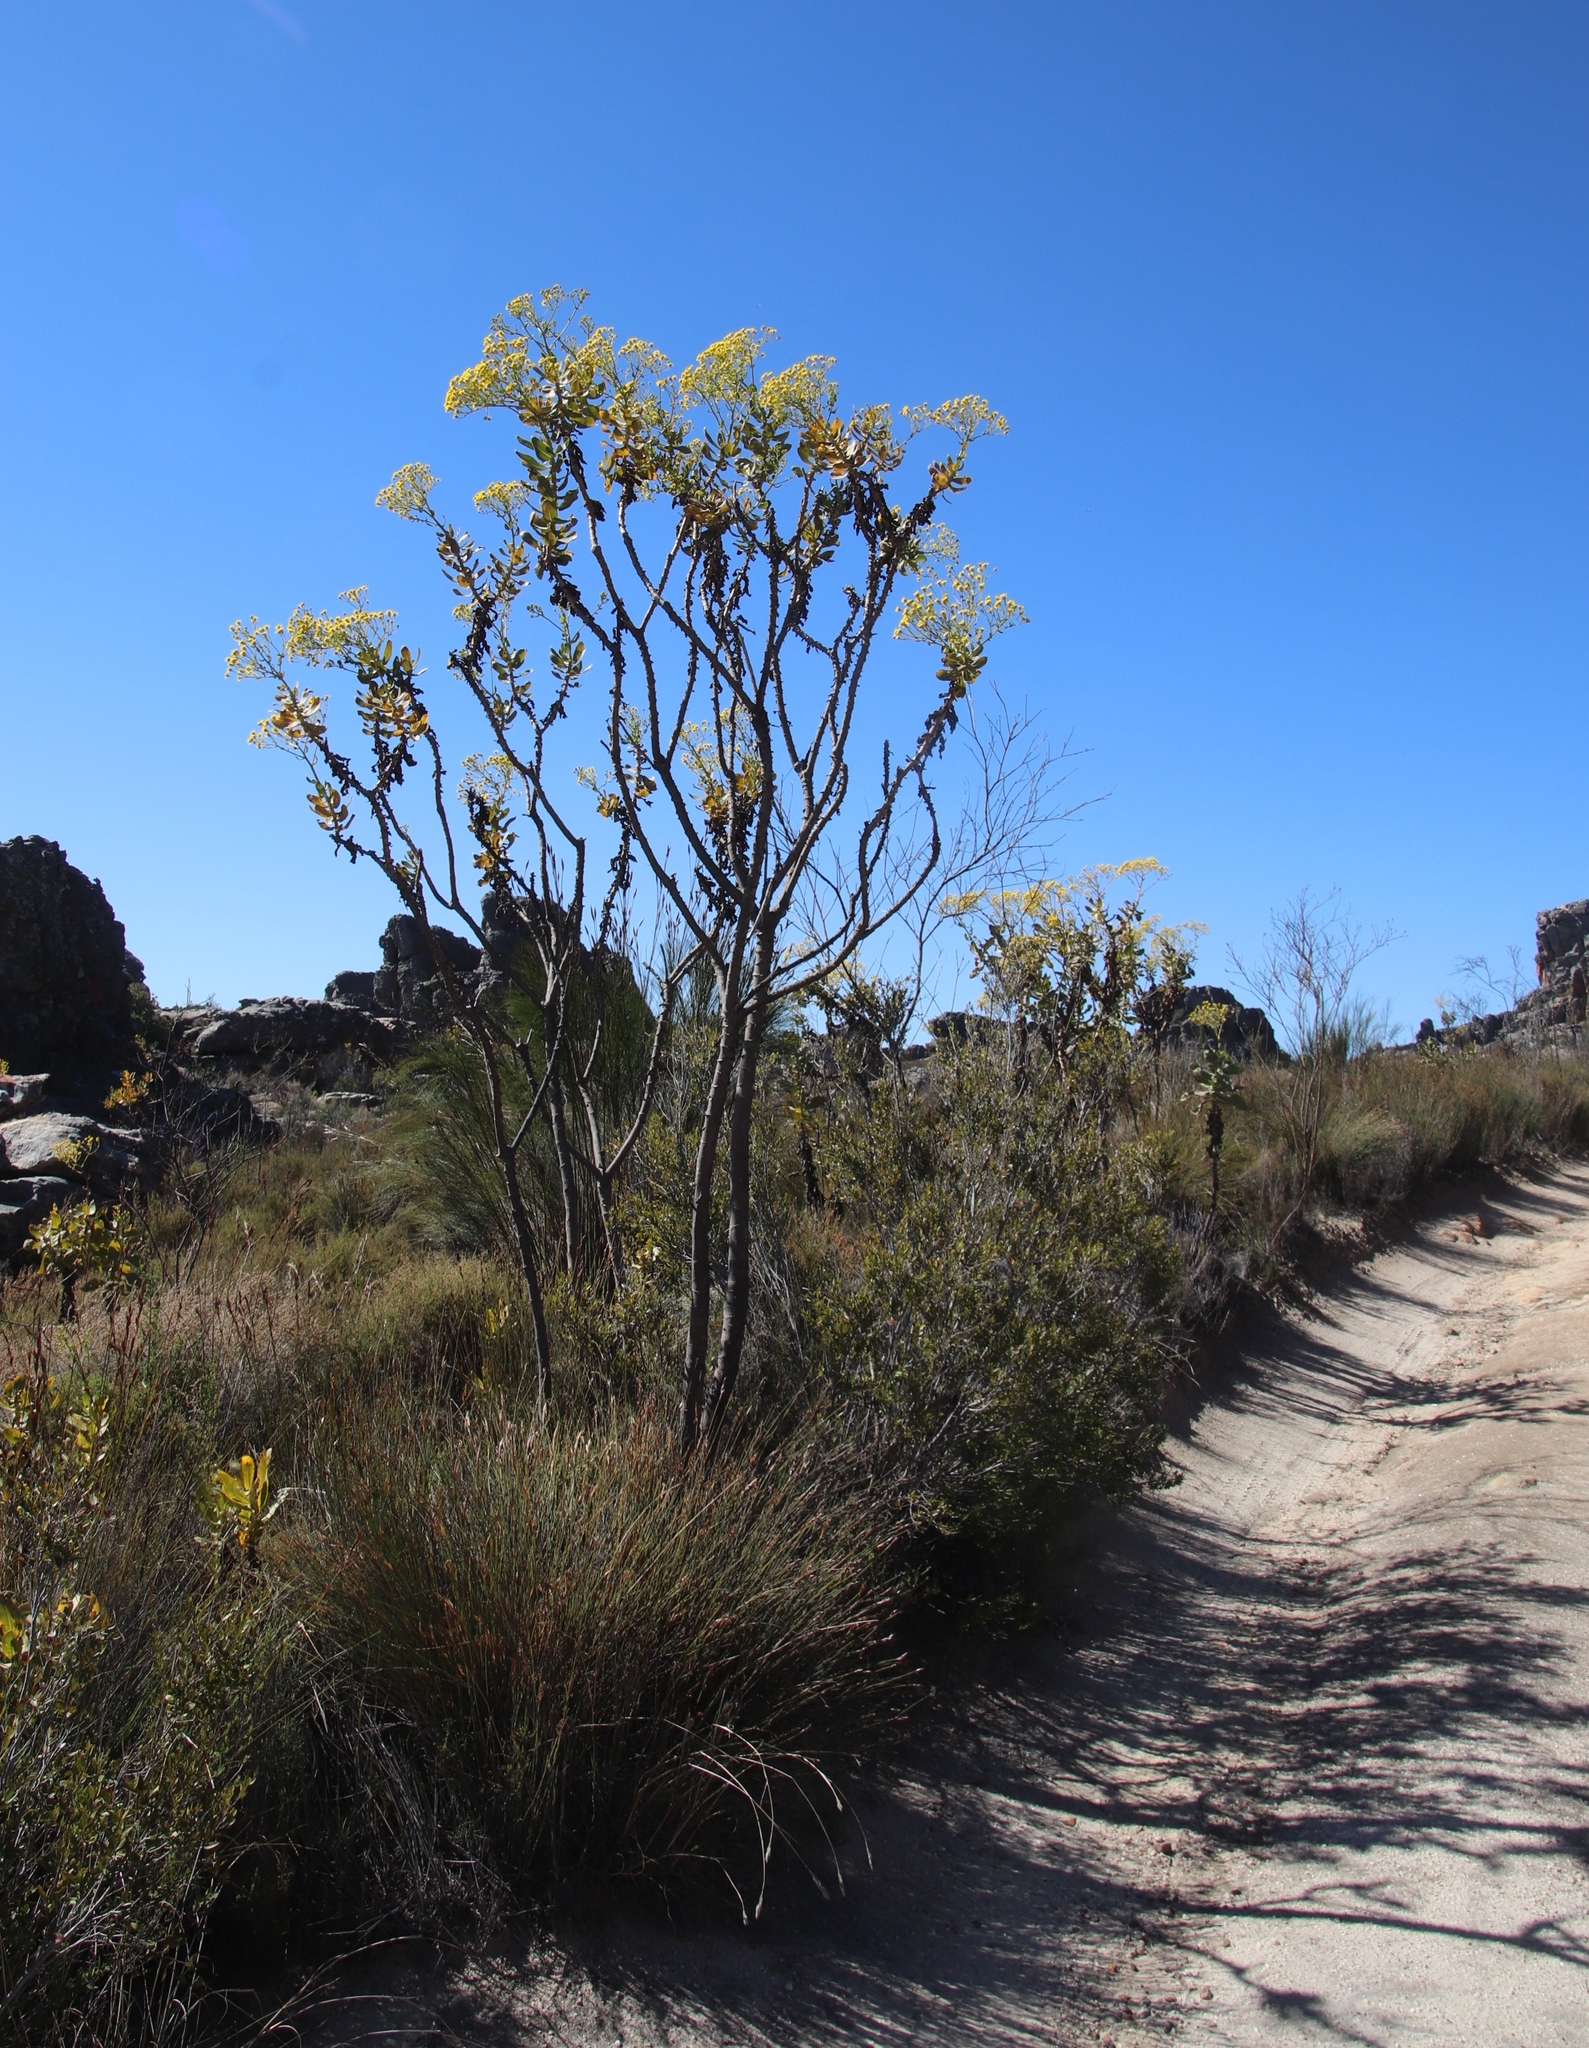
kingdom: Plantae
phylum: Tracheophyta
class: Magnoliopsida
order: Asterales
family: Asteraceae
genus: Othonna
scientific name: Othonna parviflora
